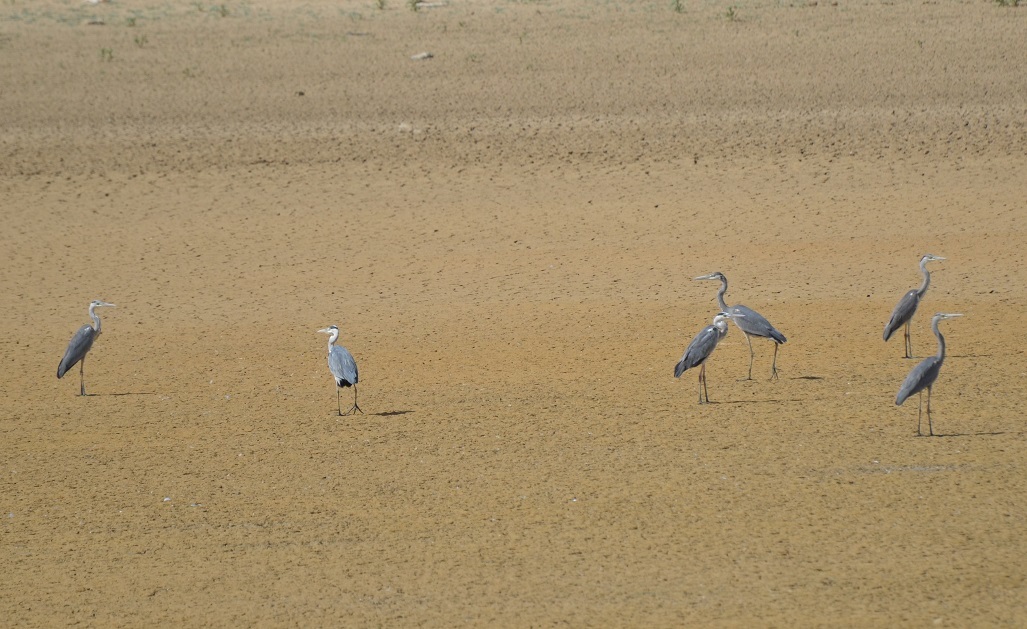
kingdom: Animalia
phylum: Chordata
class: Aves
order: Pelecaniformes
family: Ardeidae
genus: Ardea
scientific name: Ardea cinerea
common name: Grey heron
